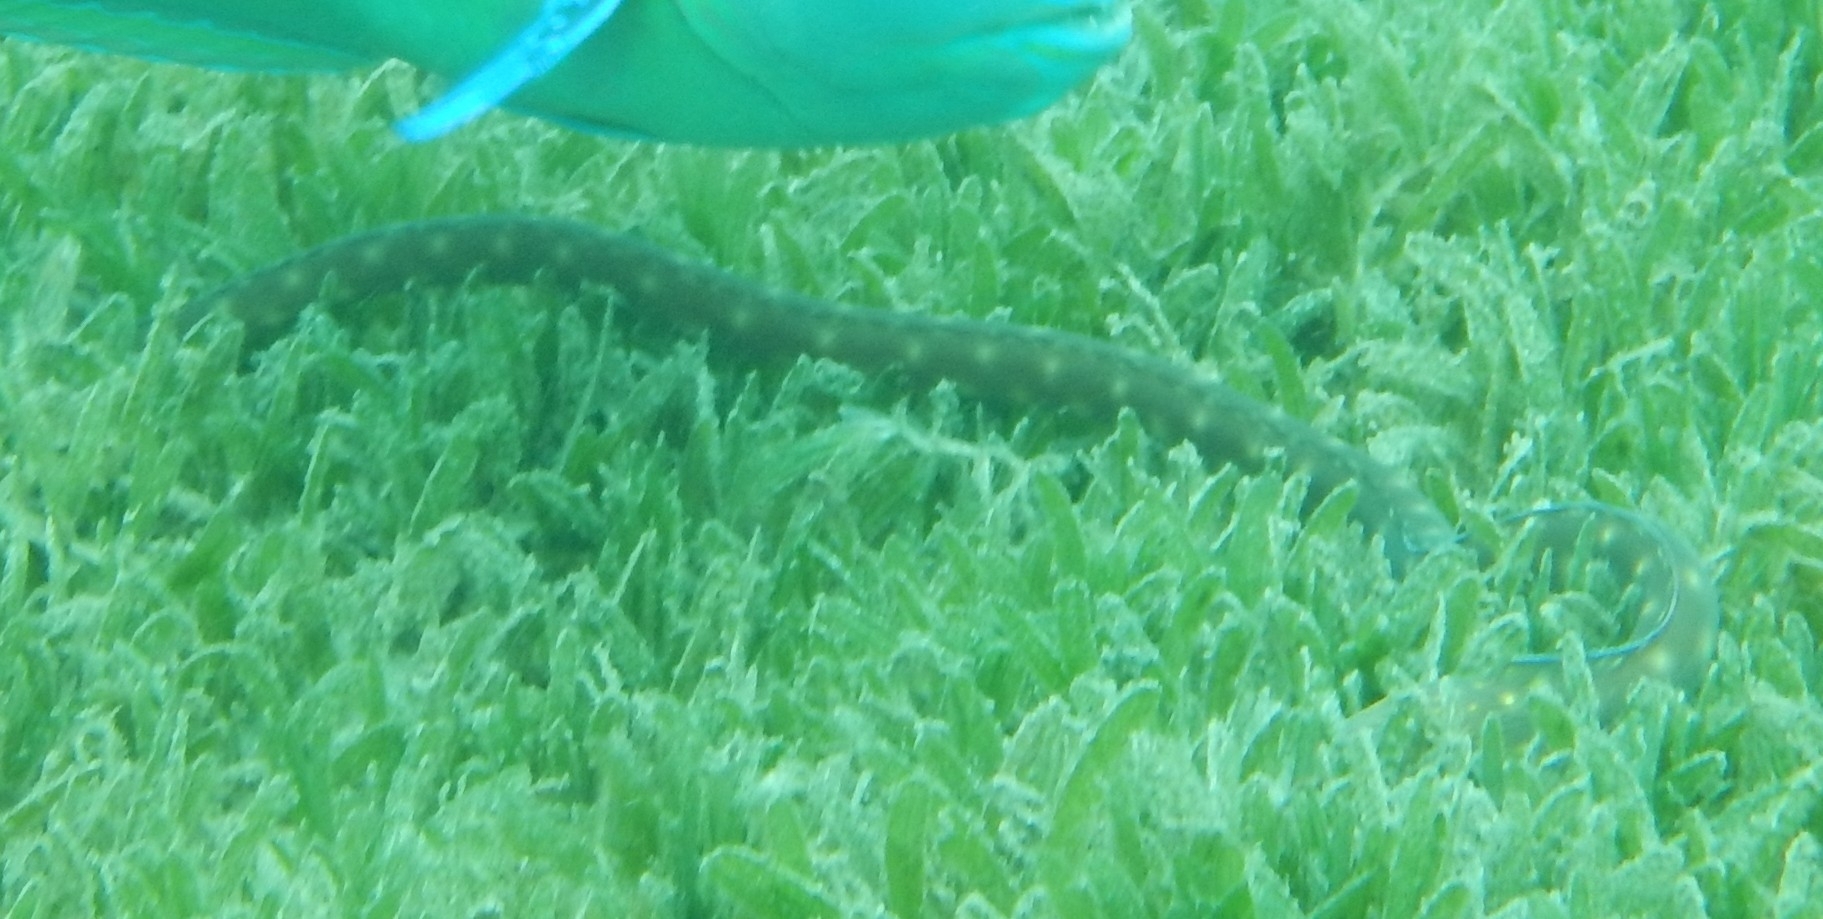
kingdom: Animalia
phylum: Chordata
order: Anguilliformes
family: Ophichthidae
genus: Myrichthys
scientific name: Myrichthys breviceps
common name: Sharptail eel
